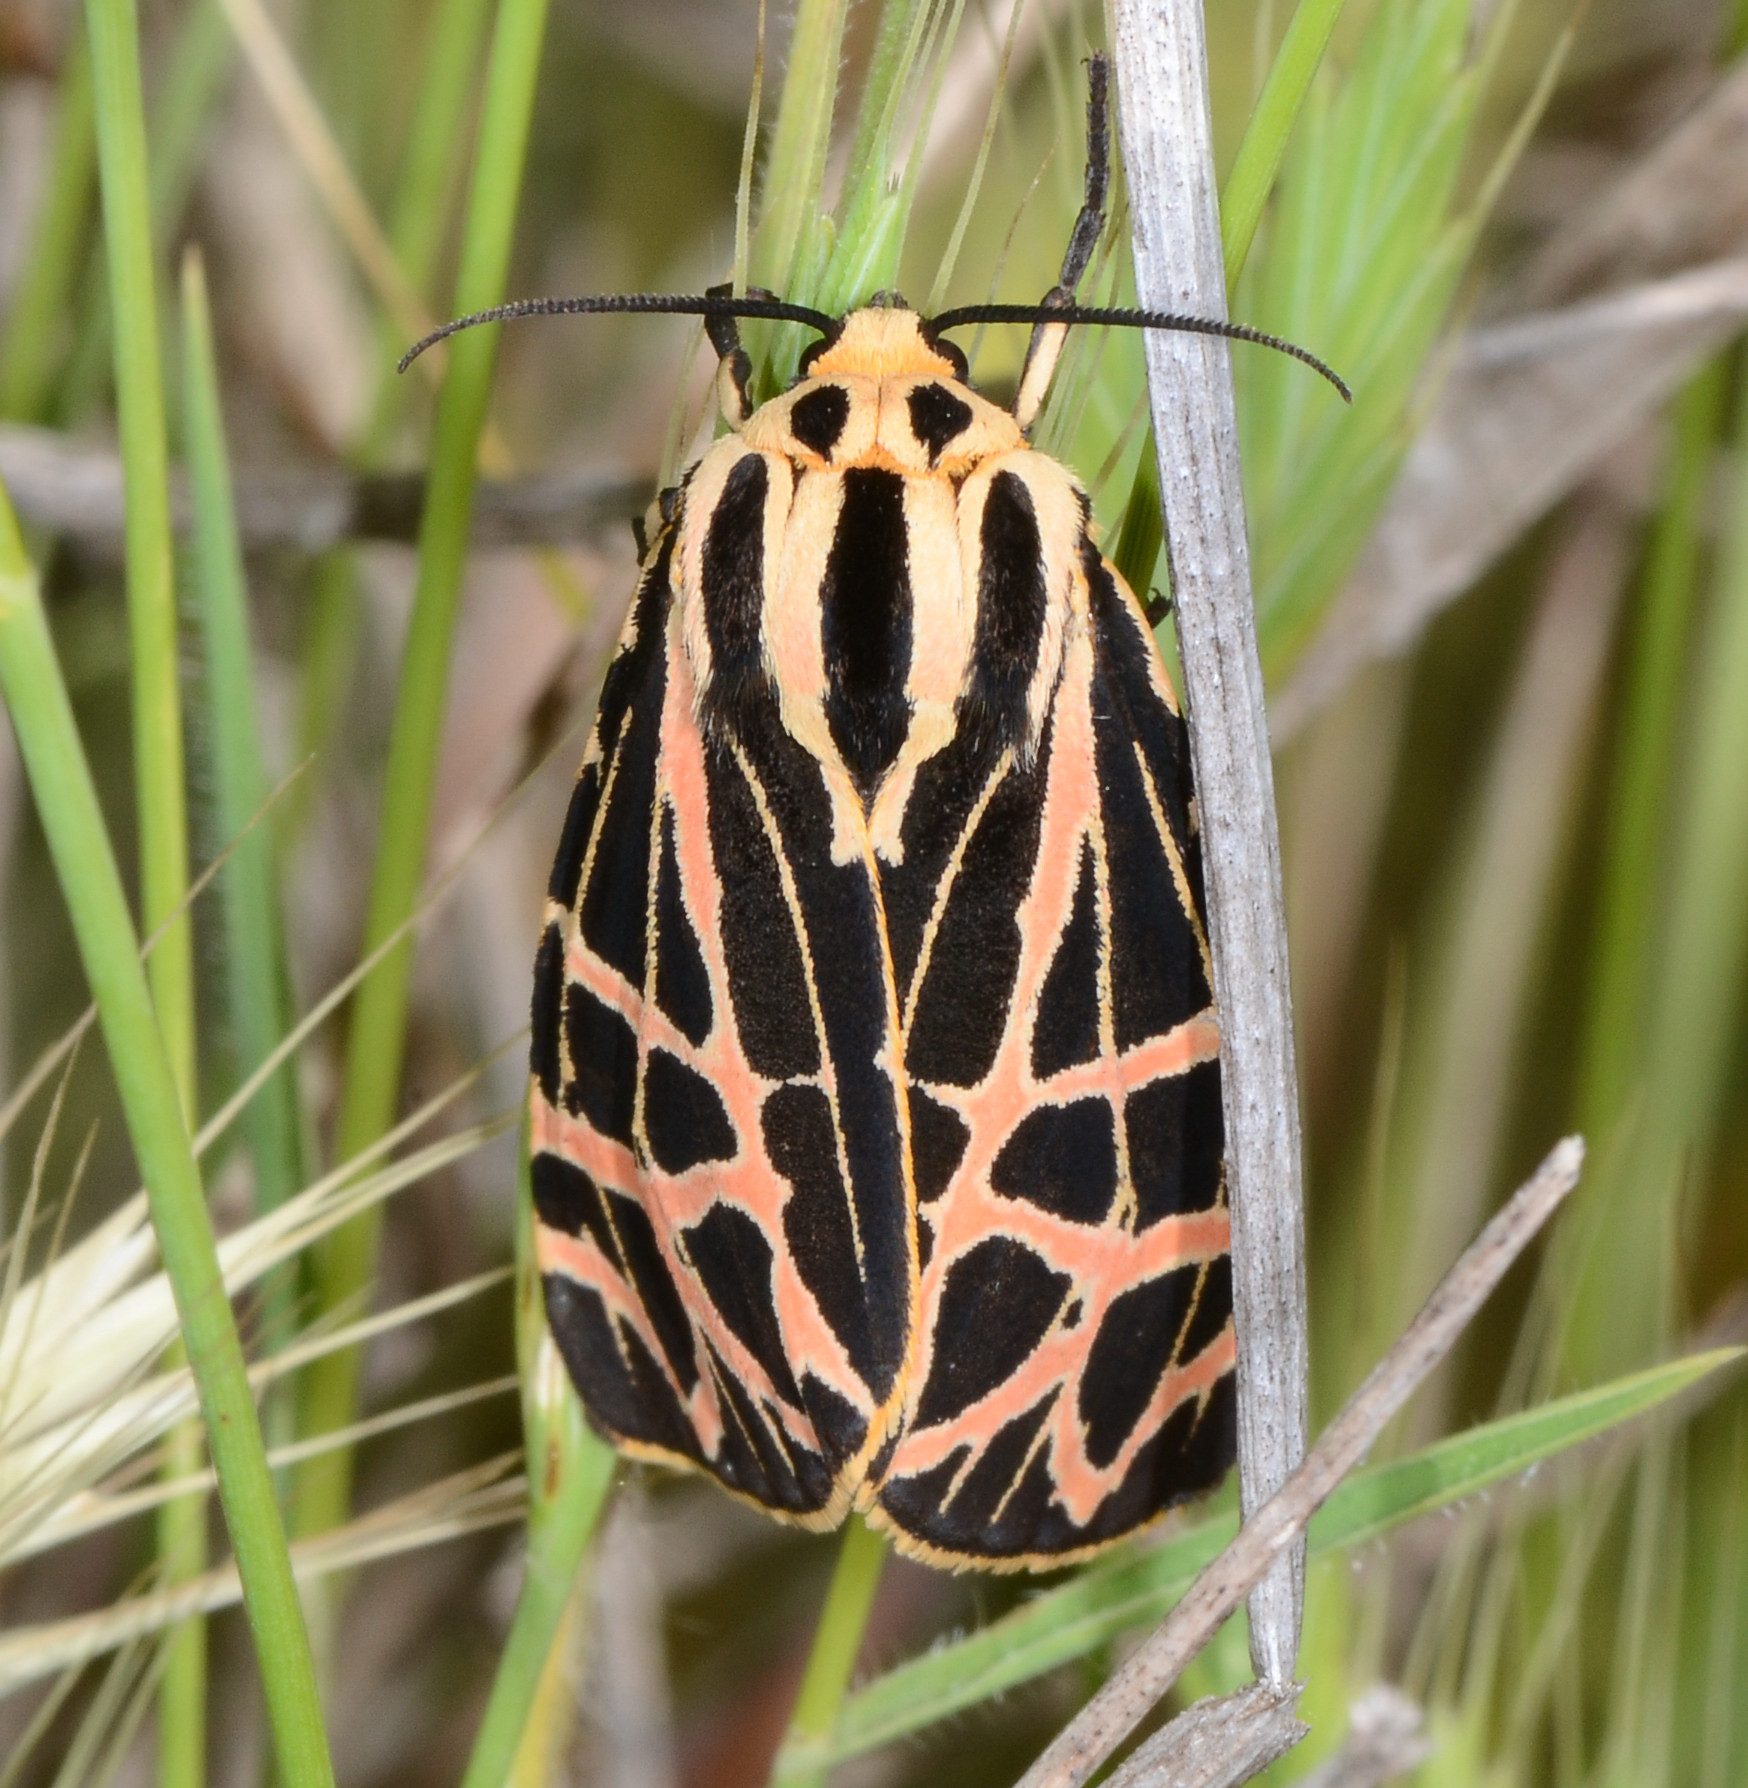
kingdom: Animalia
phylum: Arthropoda
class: Insecta
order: Lepidoptera
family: Erebidae
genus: Apantesis
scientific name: Apantesis
